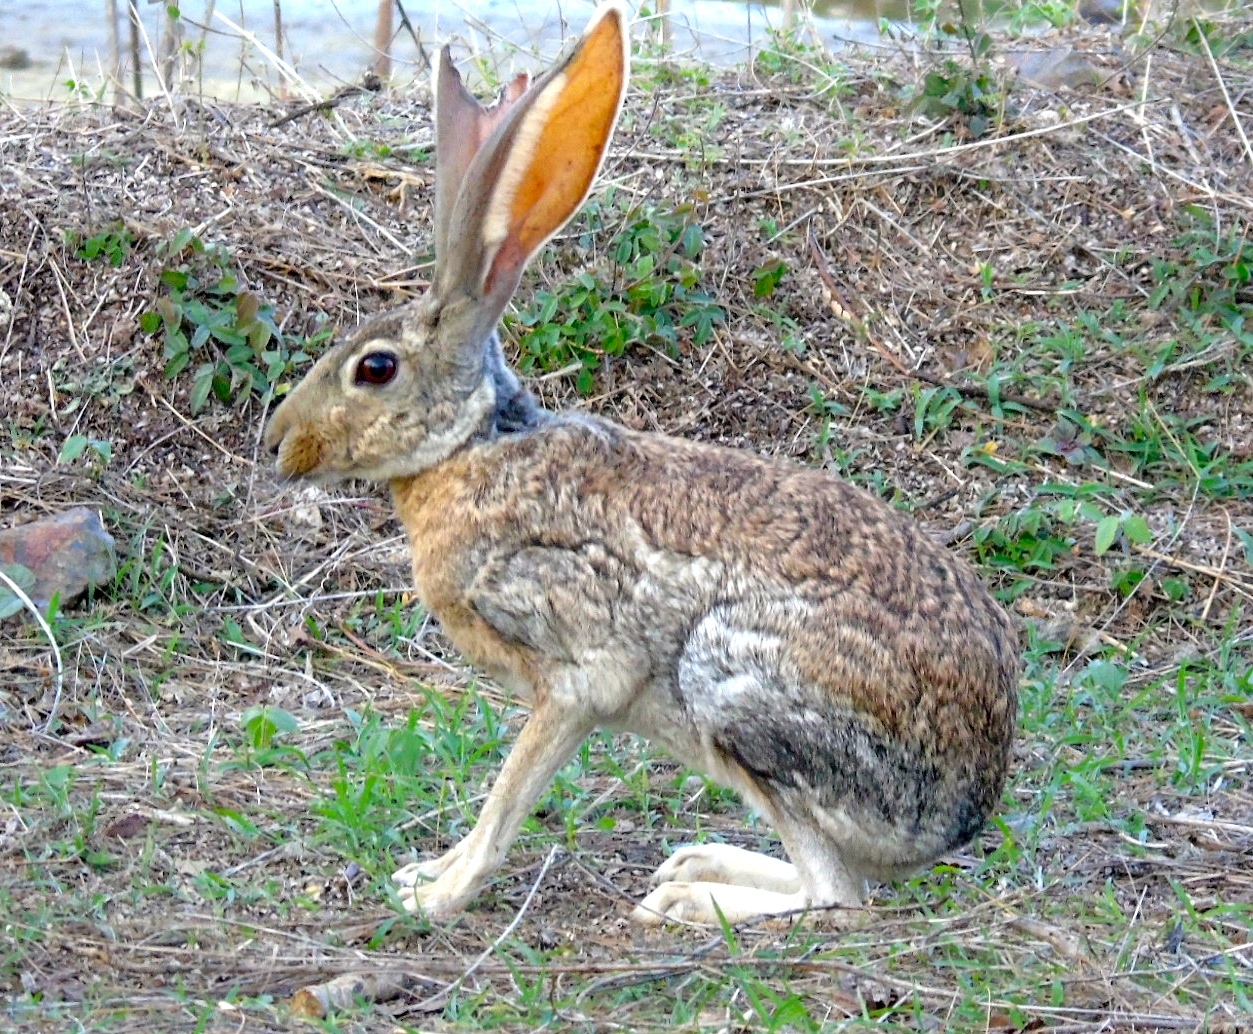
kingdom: Animalia
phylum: Chordata
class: Mammalia
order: Lagomorpha
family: Leporidae
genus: Lepus
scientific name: Lepus alleni
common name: Antelope jackrabbit
